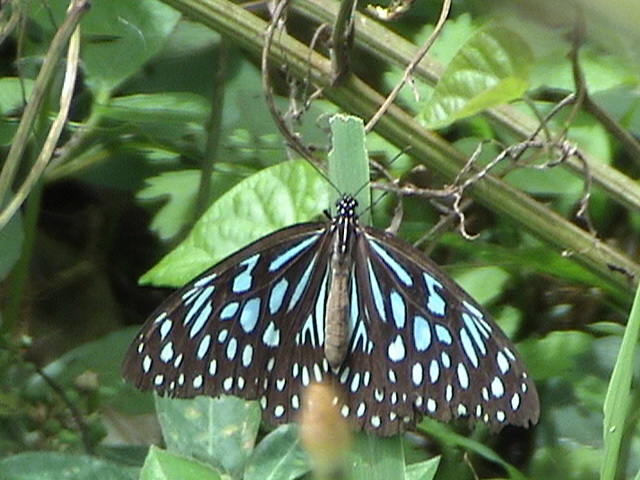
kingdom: Animalia
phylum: Arthropoda
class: Insecta
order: Lepidoptera
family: Nymphalidae
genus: Tirumala
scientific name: Tirumala septentrionis
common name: Dark blue tiger butterfly
